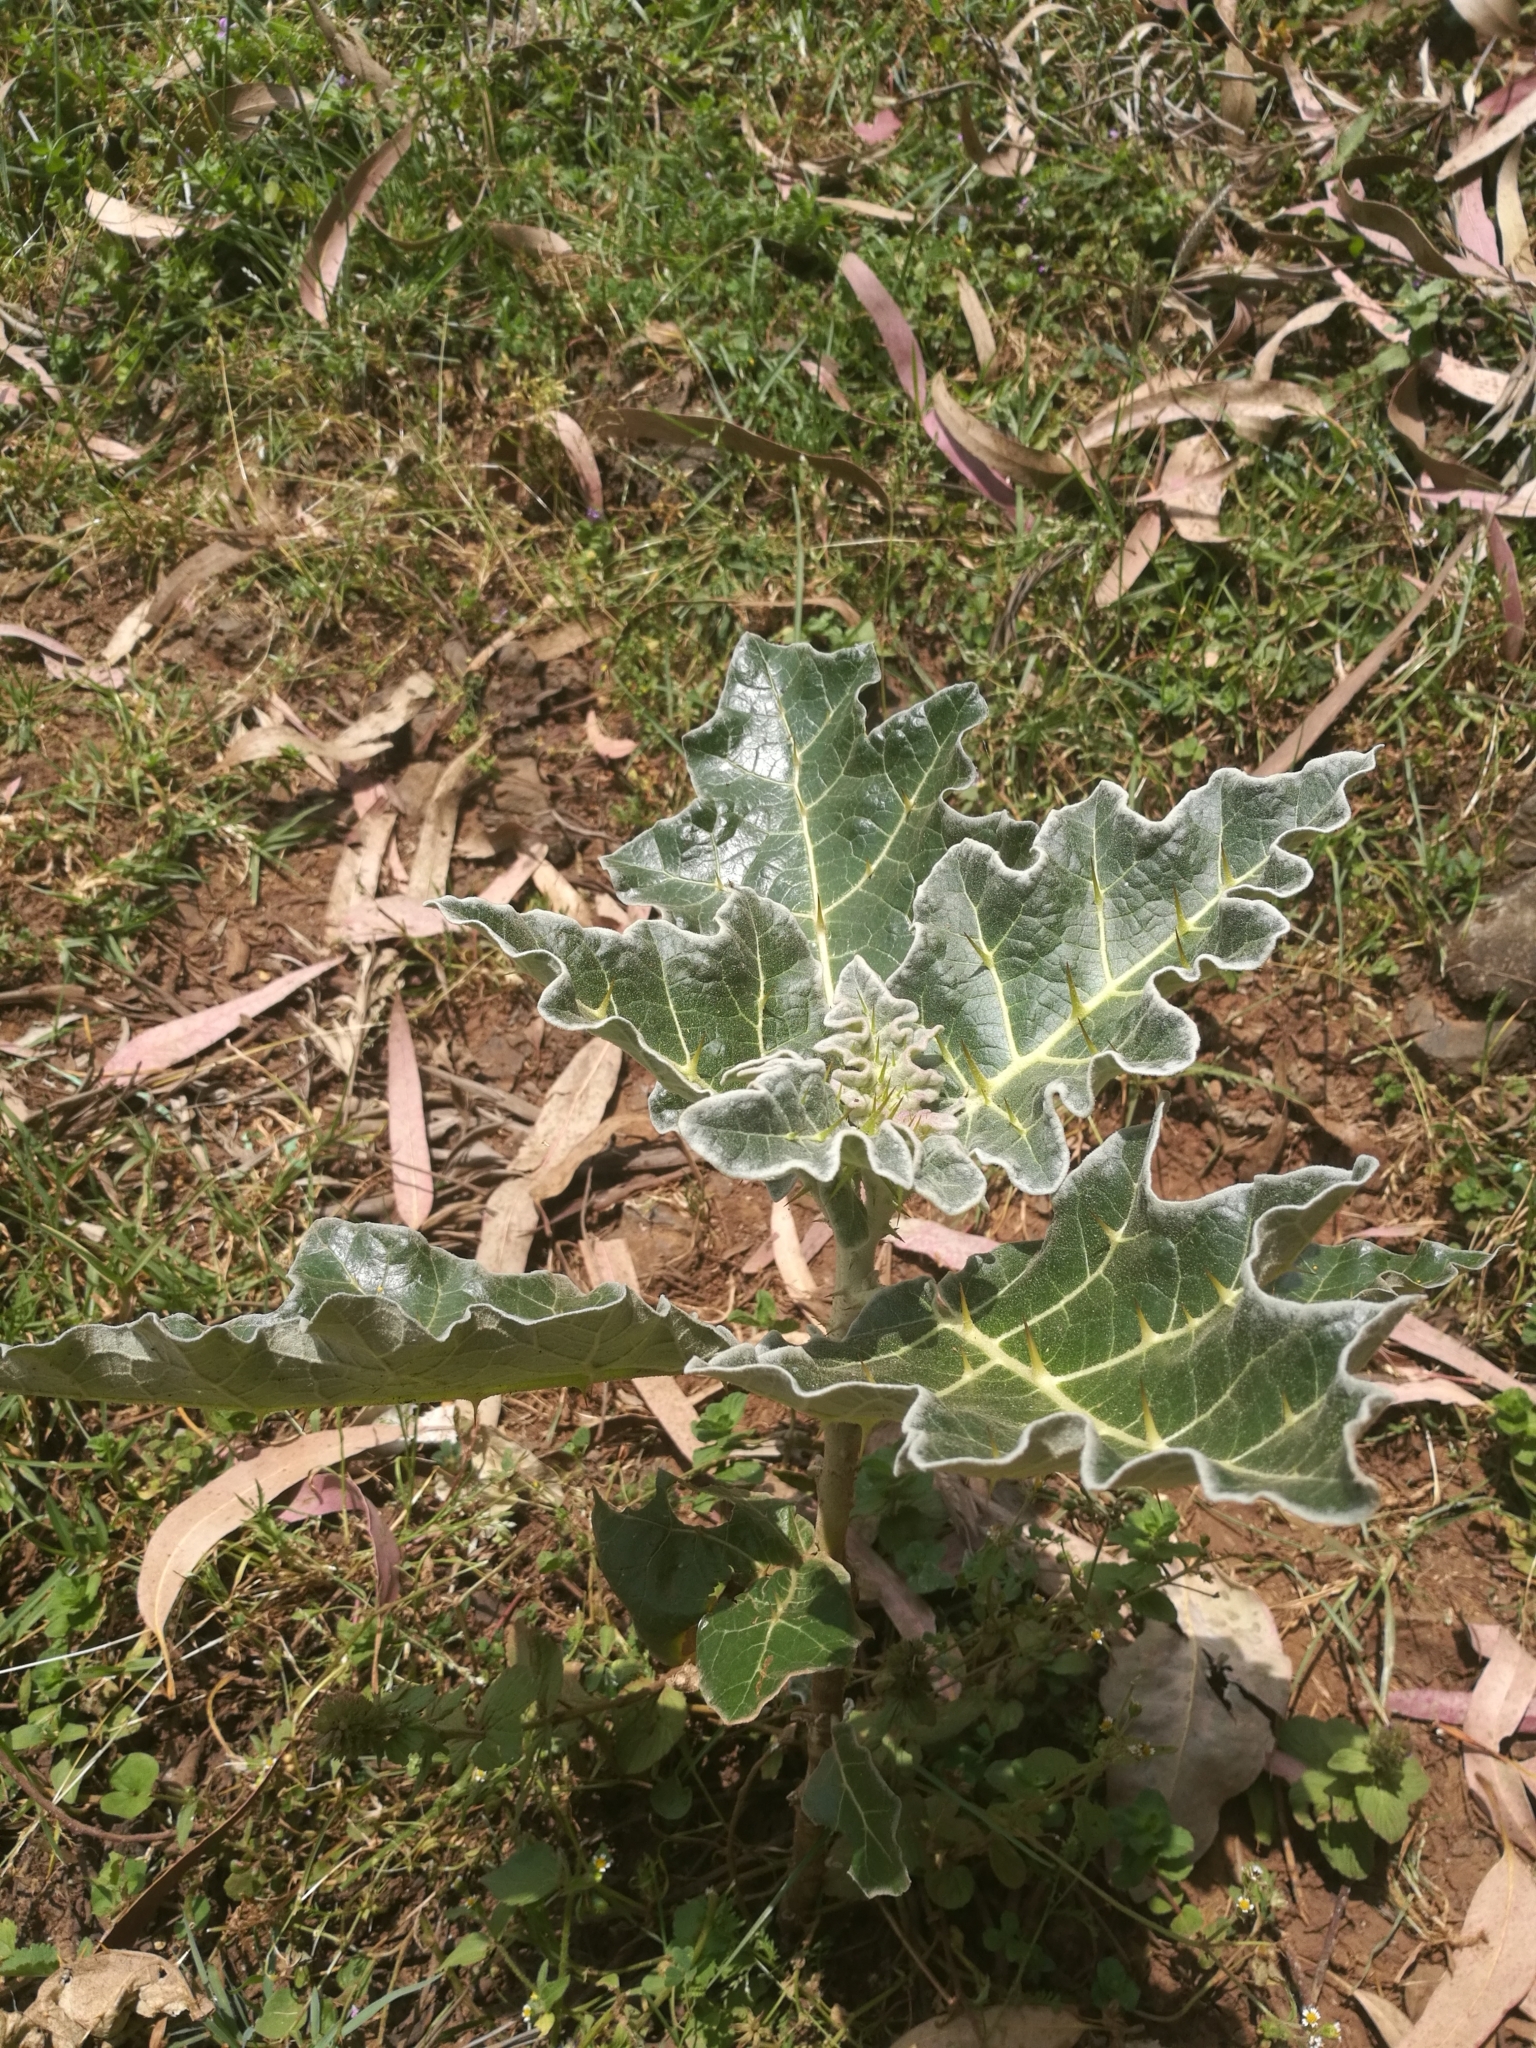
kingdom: Plantae
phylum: Tracheophyta
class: Magnoliopsida
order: Solanales
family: Solanaceae
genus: Solanum
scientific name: Solanum marginatum
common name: Purple african nightshade
